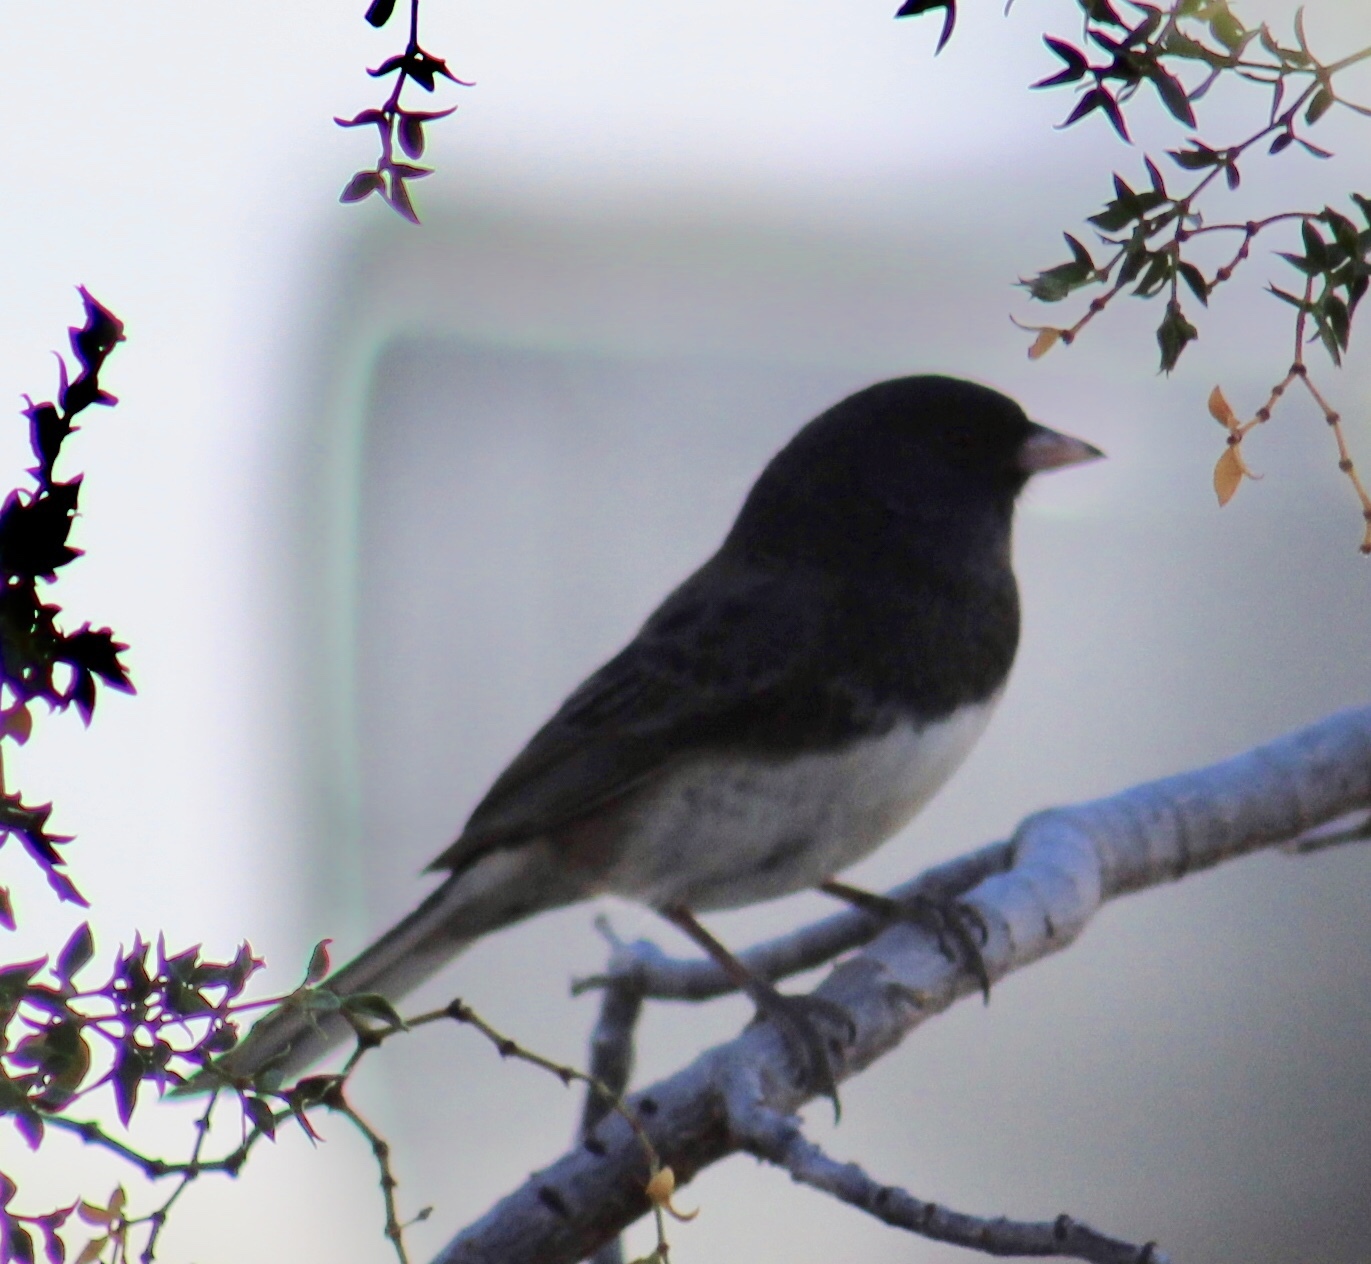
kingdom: Animalia
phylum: Chordata
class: Aves
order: Passeriformes
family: Passerellidae
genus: Junco
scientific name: Junco hyemalis
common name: Dark-eyed junco
